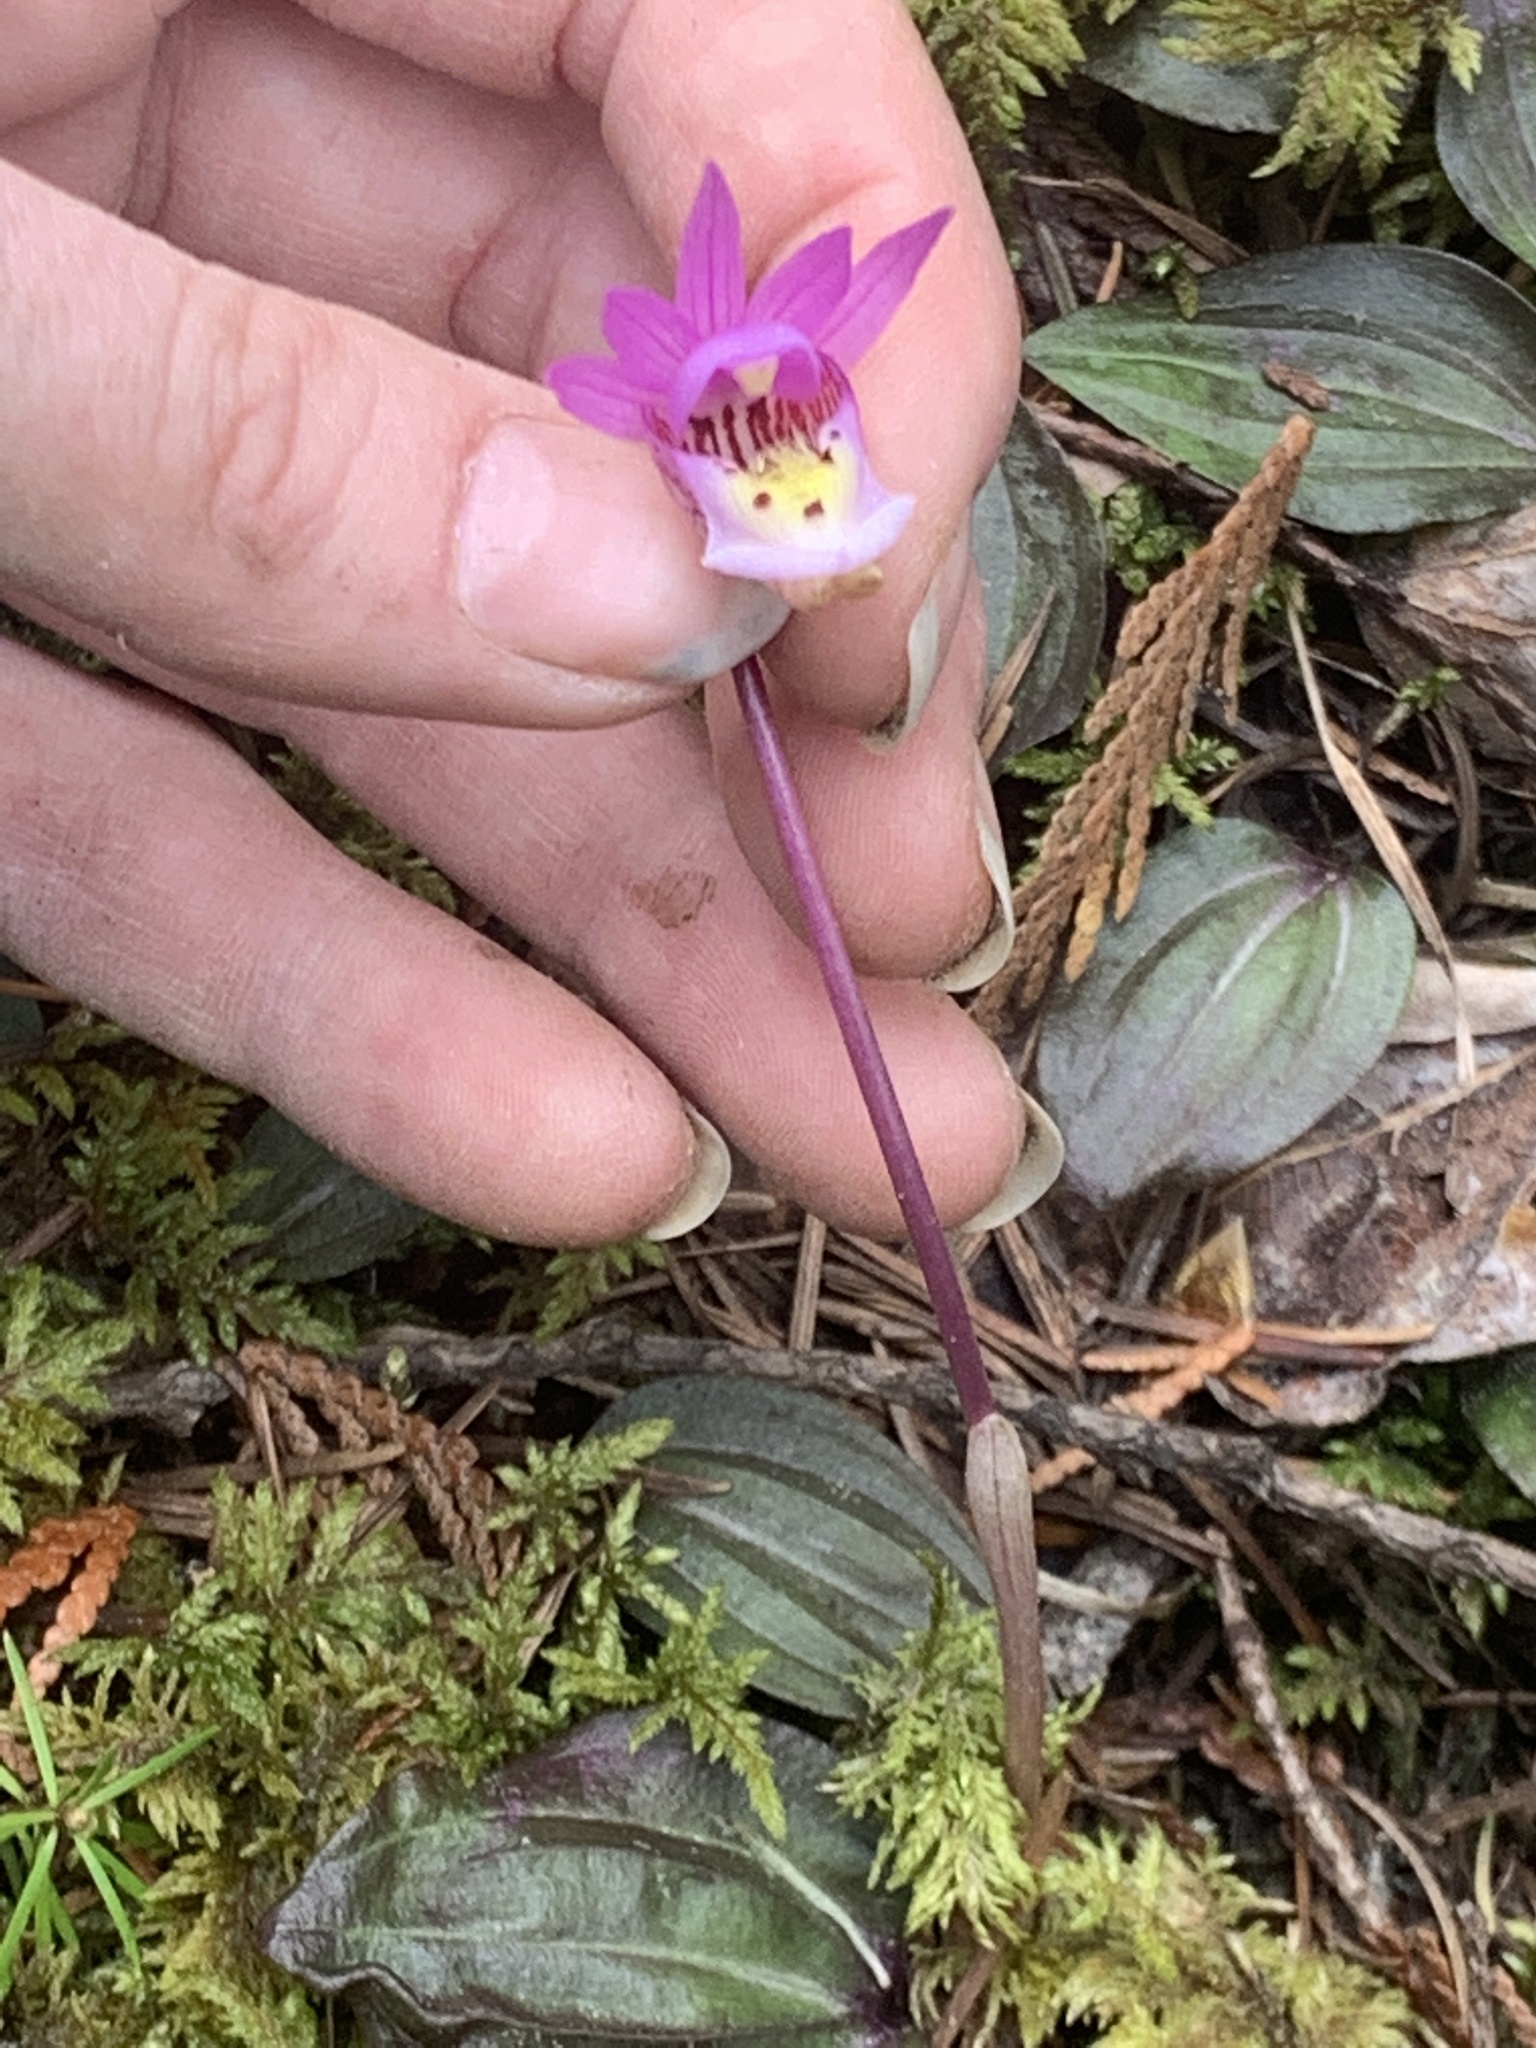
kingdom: Plantae
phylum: Tracheophyta
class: Liliopsida
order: Asparagales
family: Orchidaceae
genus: Calypso
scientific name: Calypso bulbosa
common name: Calypso
